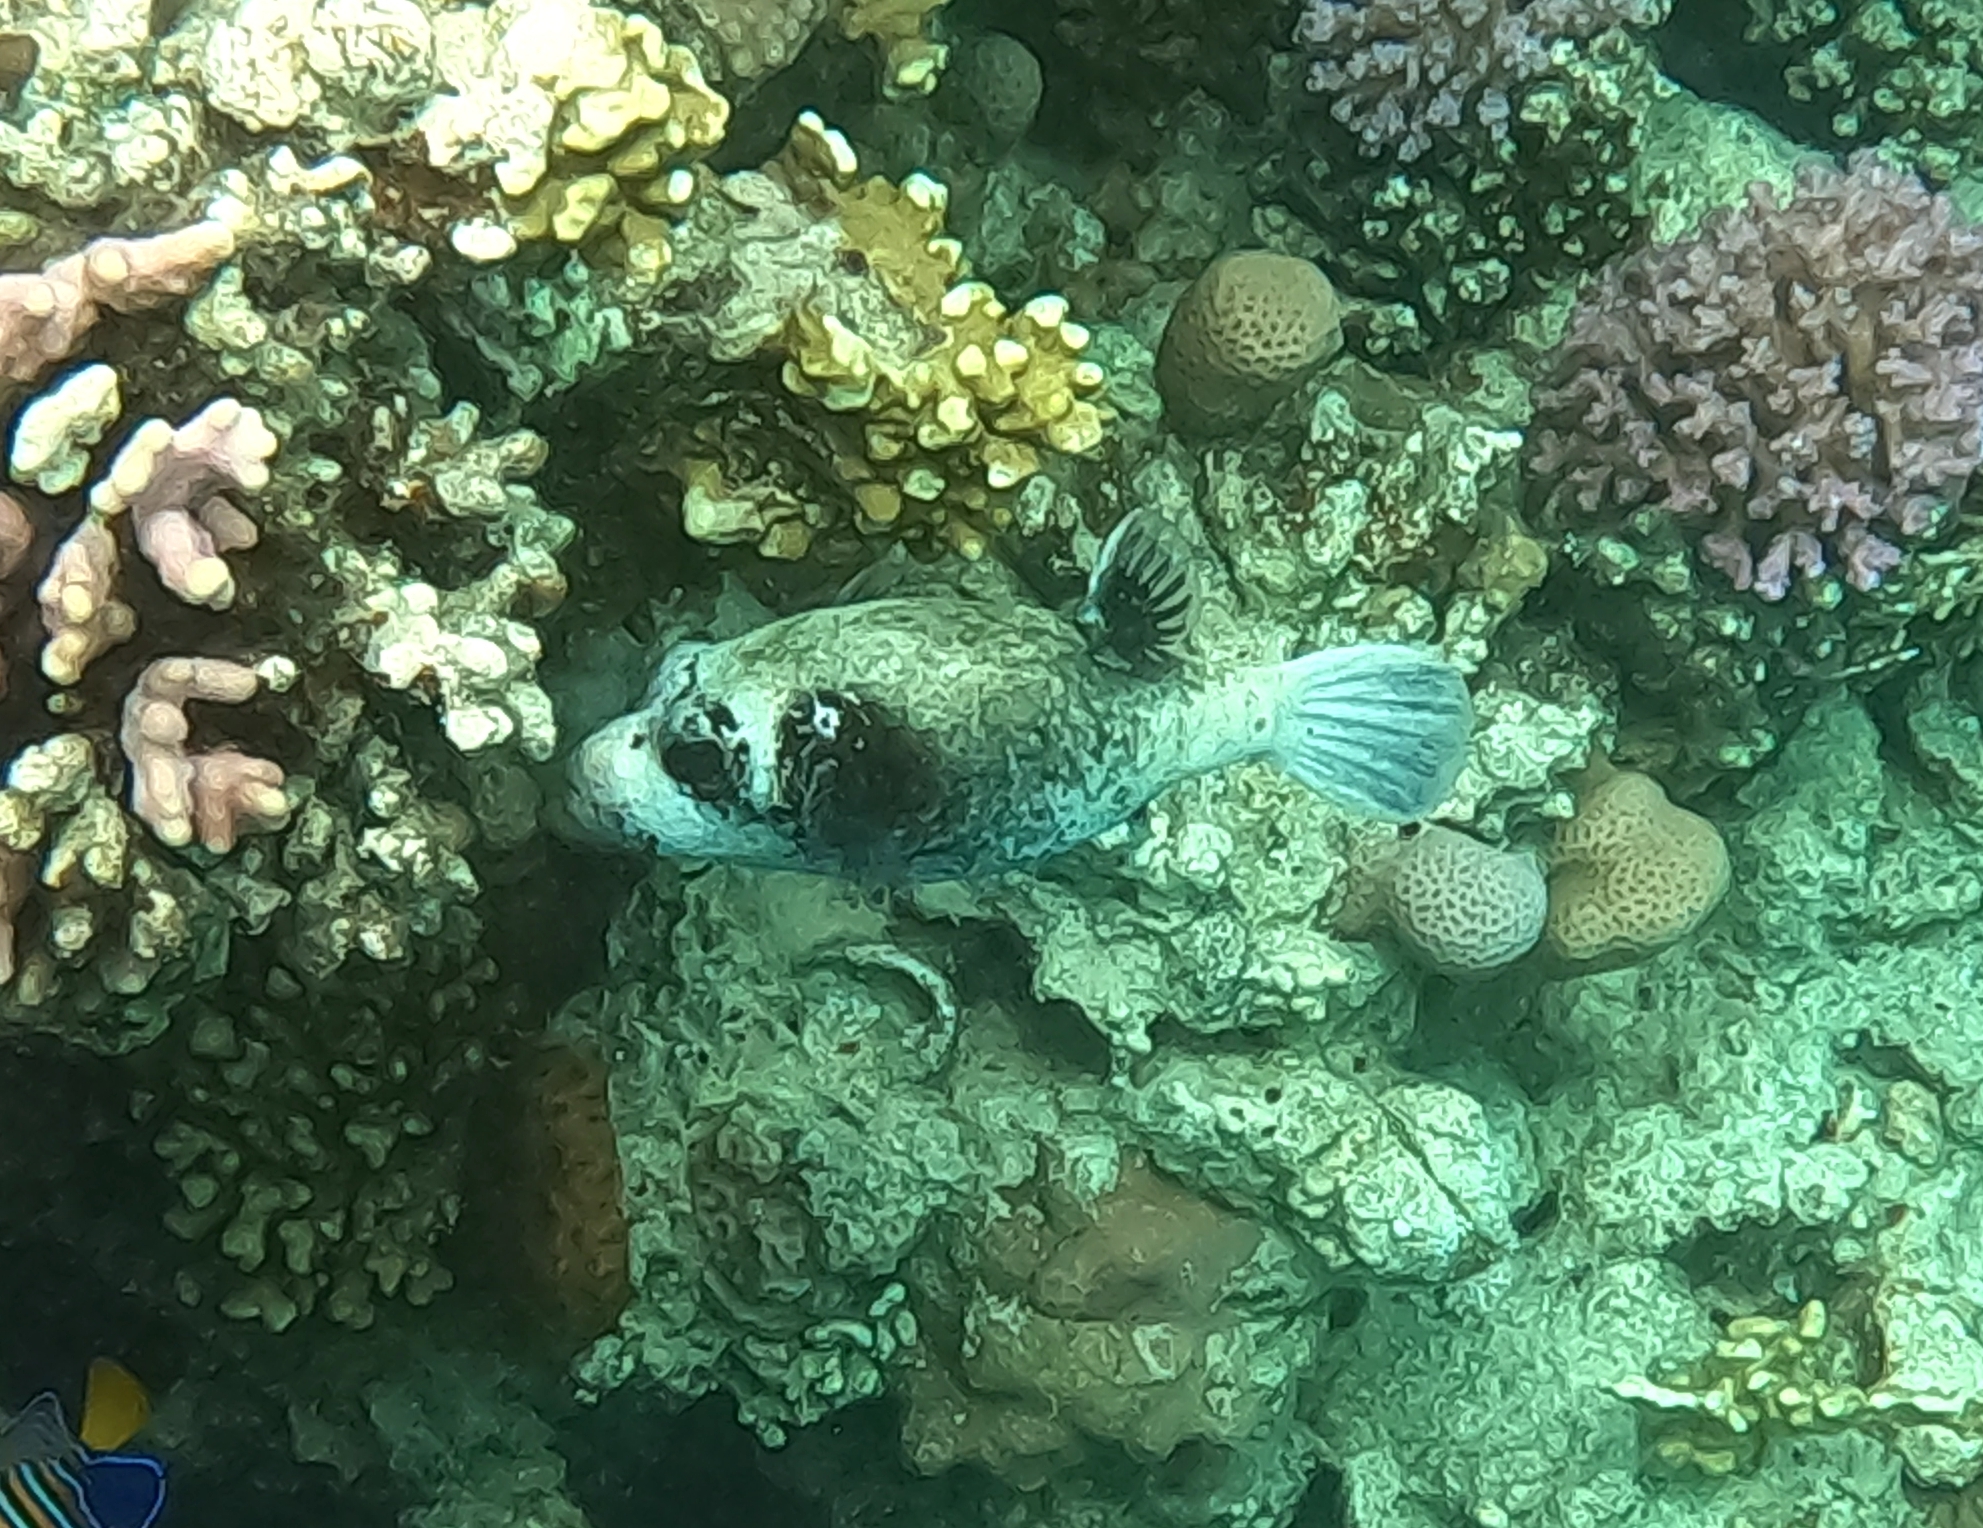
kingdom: Animalia
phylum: Chordata
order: Tetraodontiformes
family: Tetraodontidae
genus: Arothron
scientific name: Arothron diadematus
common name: Masked puffer
